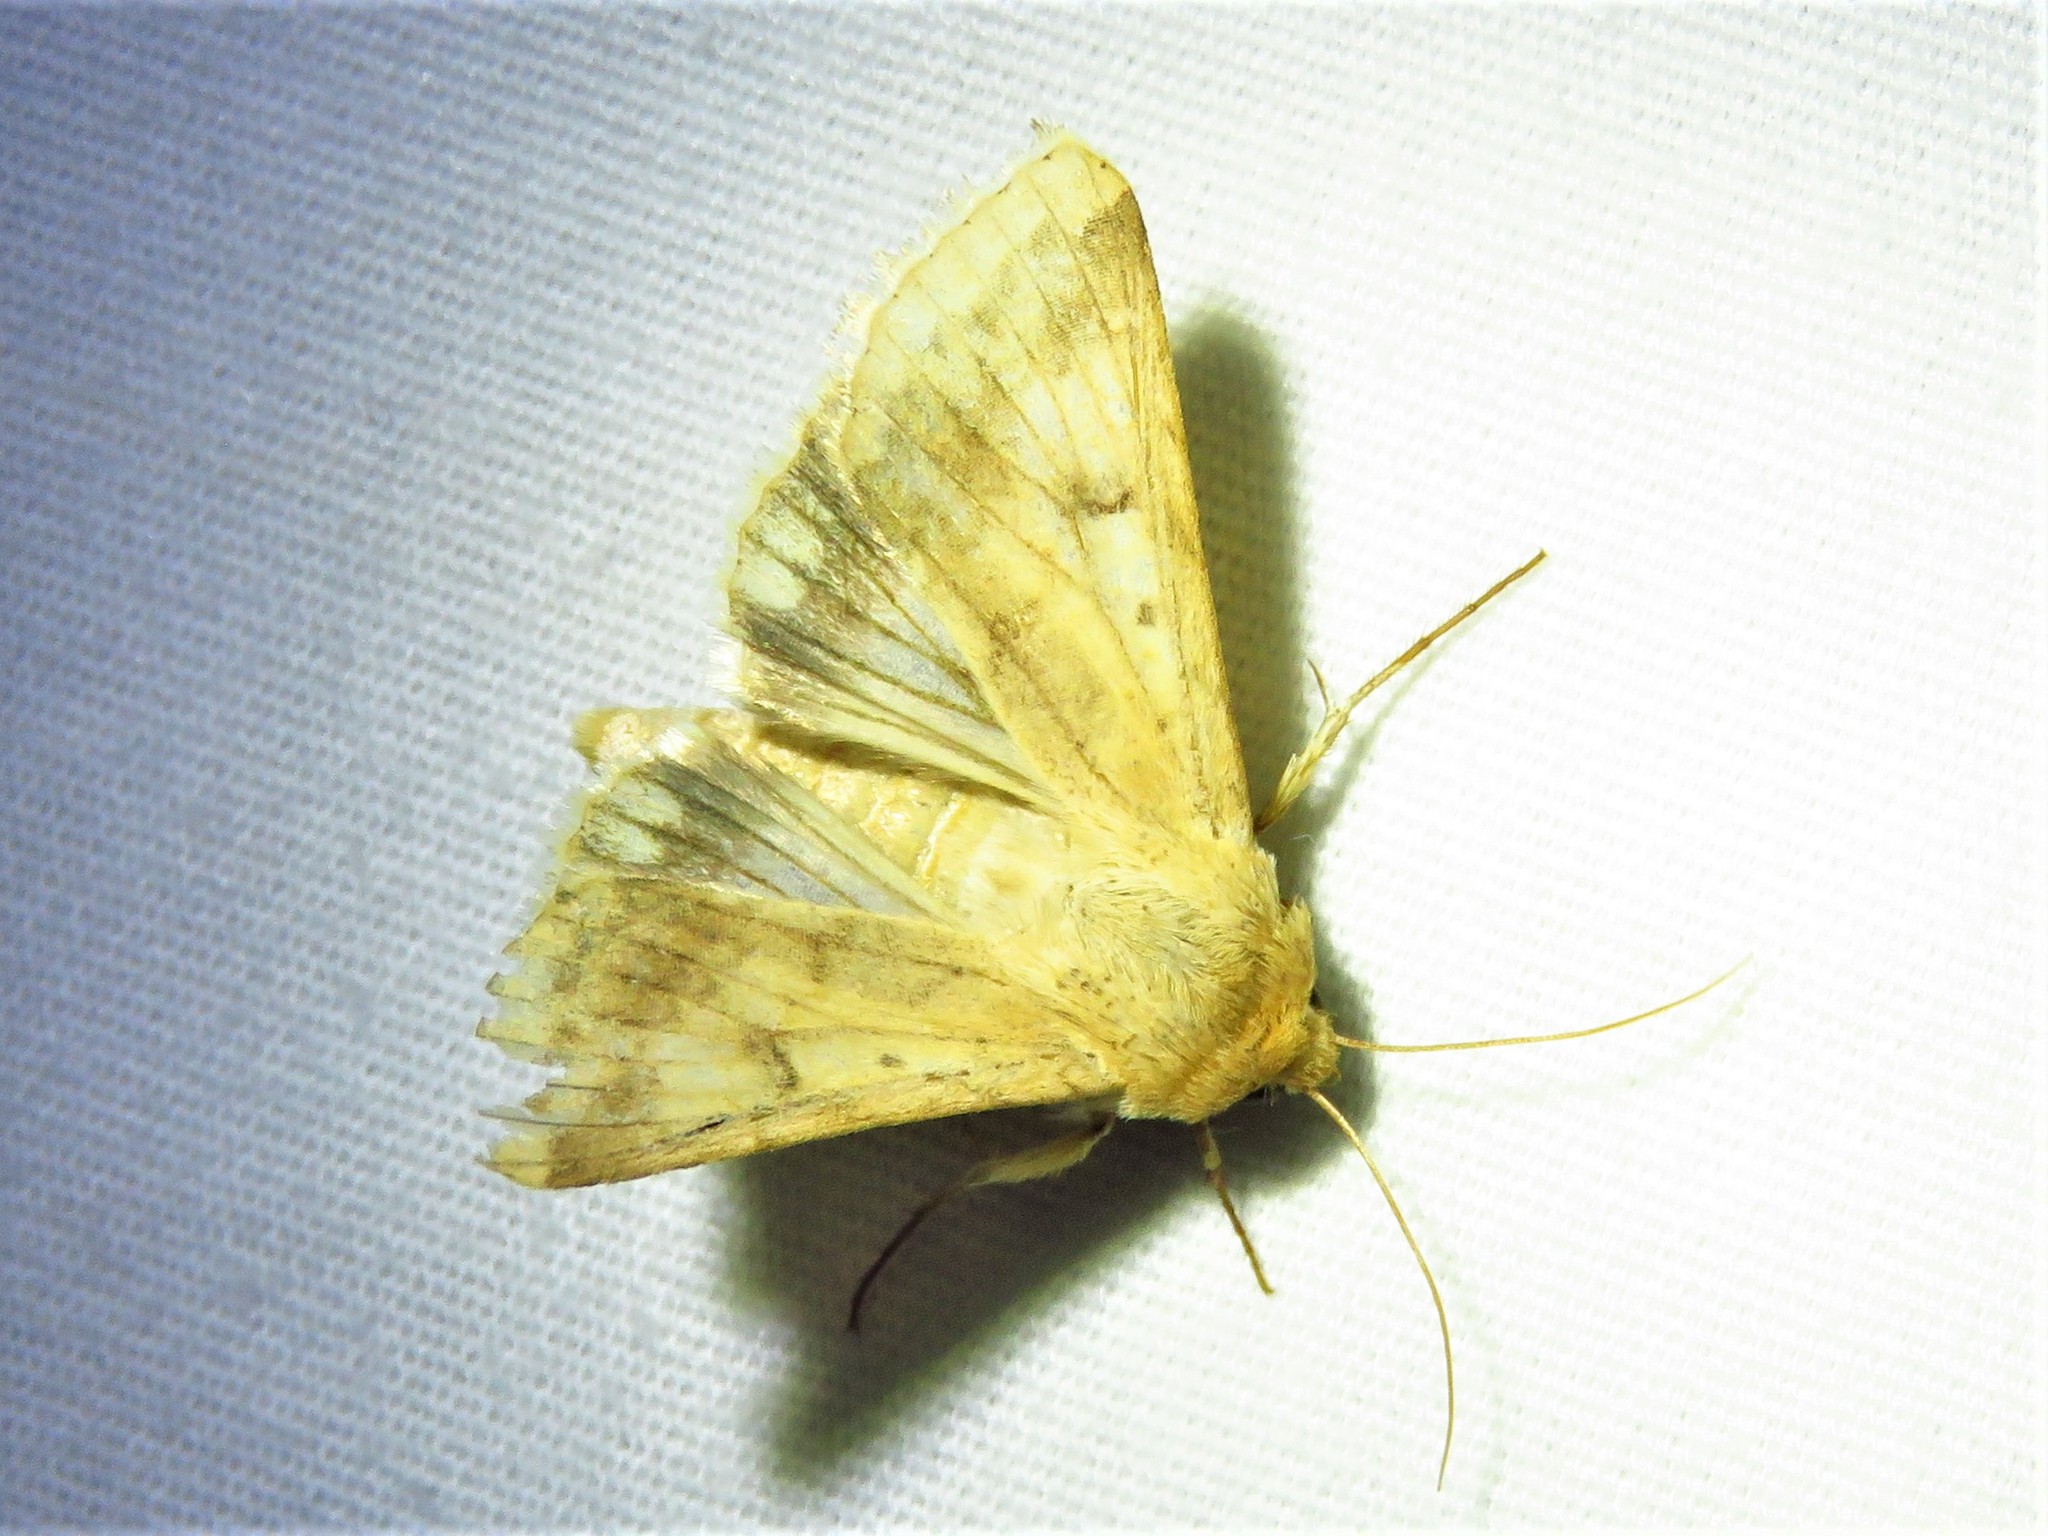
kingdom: Animalia
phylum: Arthropoda
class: Insecta
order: Lepidoptera
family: Noctuidae
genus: Helicoverpa
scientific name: Helicoverpa zea
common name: Bollworm
